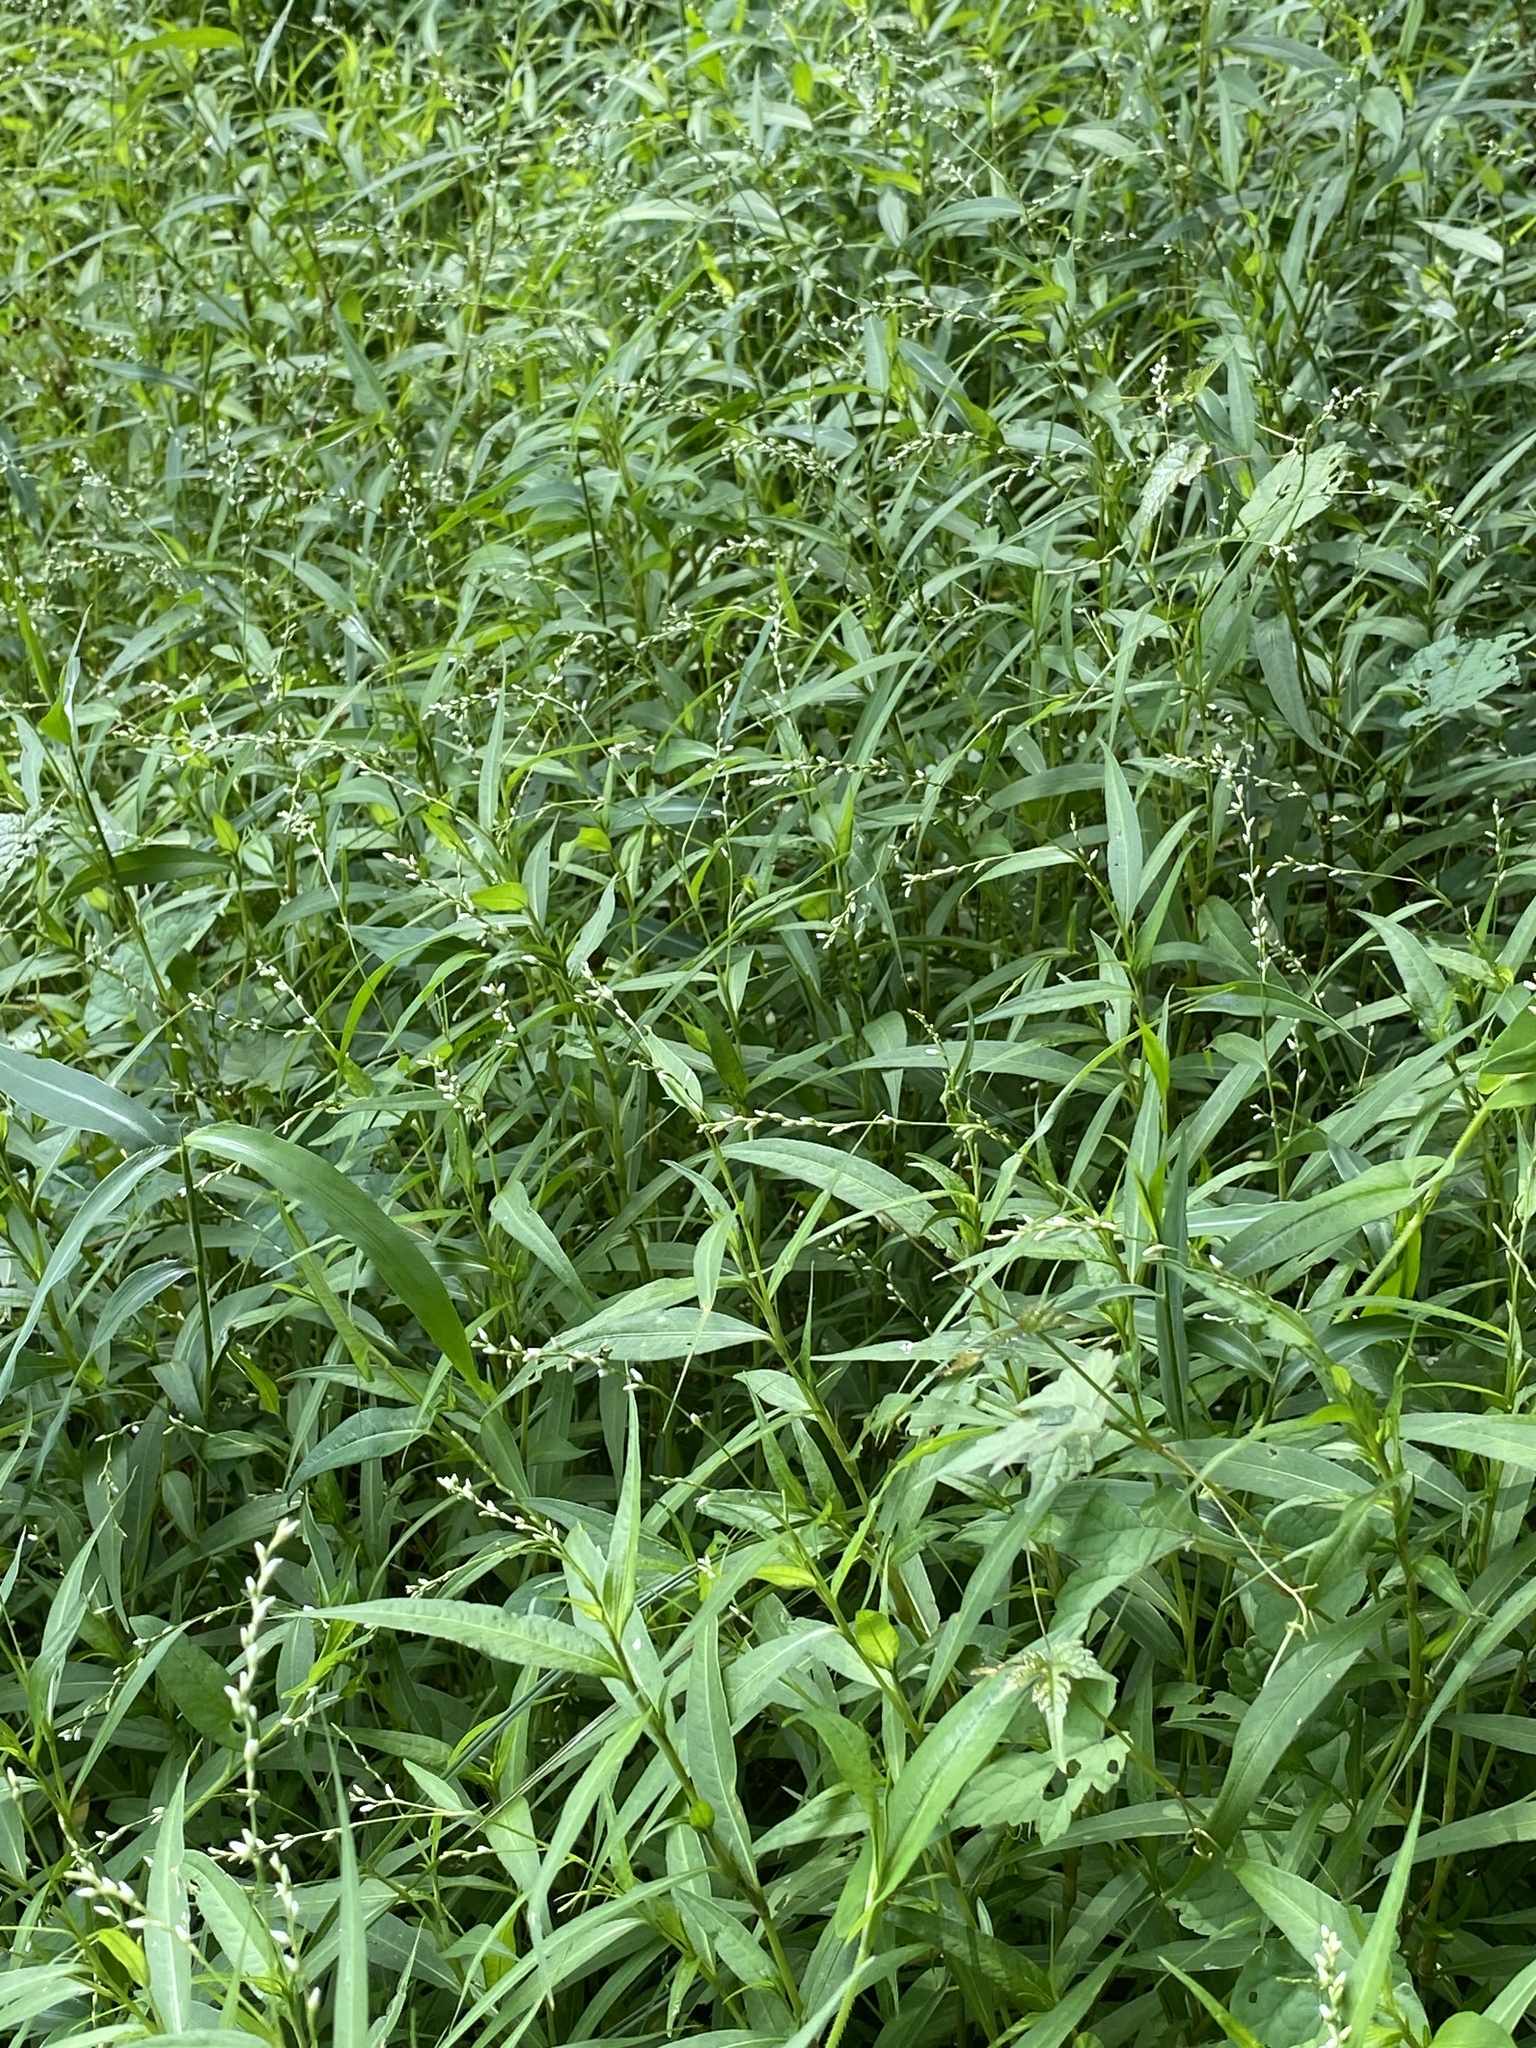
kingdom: Plantae
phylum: Tracheophyta
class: Magnoliopsida
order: Caryophyllales
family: Polygonaceae
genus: Persicaria
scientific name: Persicaria punctata
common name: Dotted smartweed
